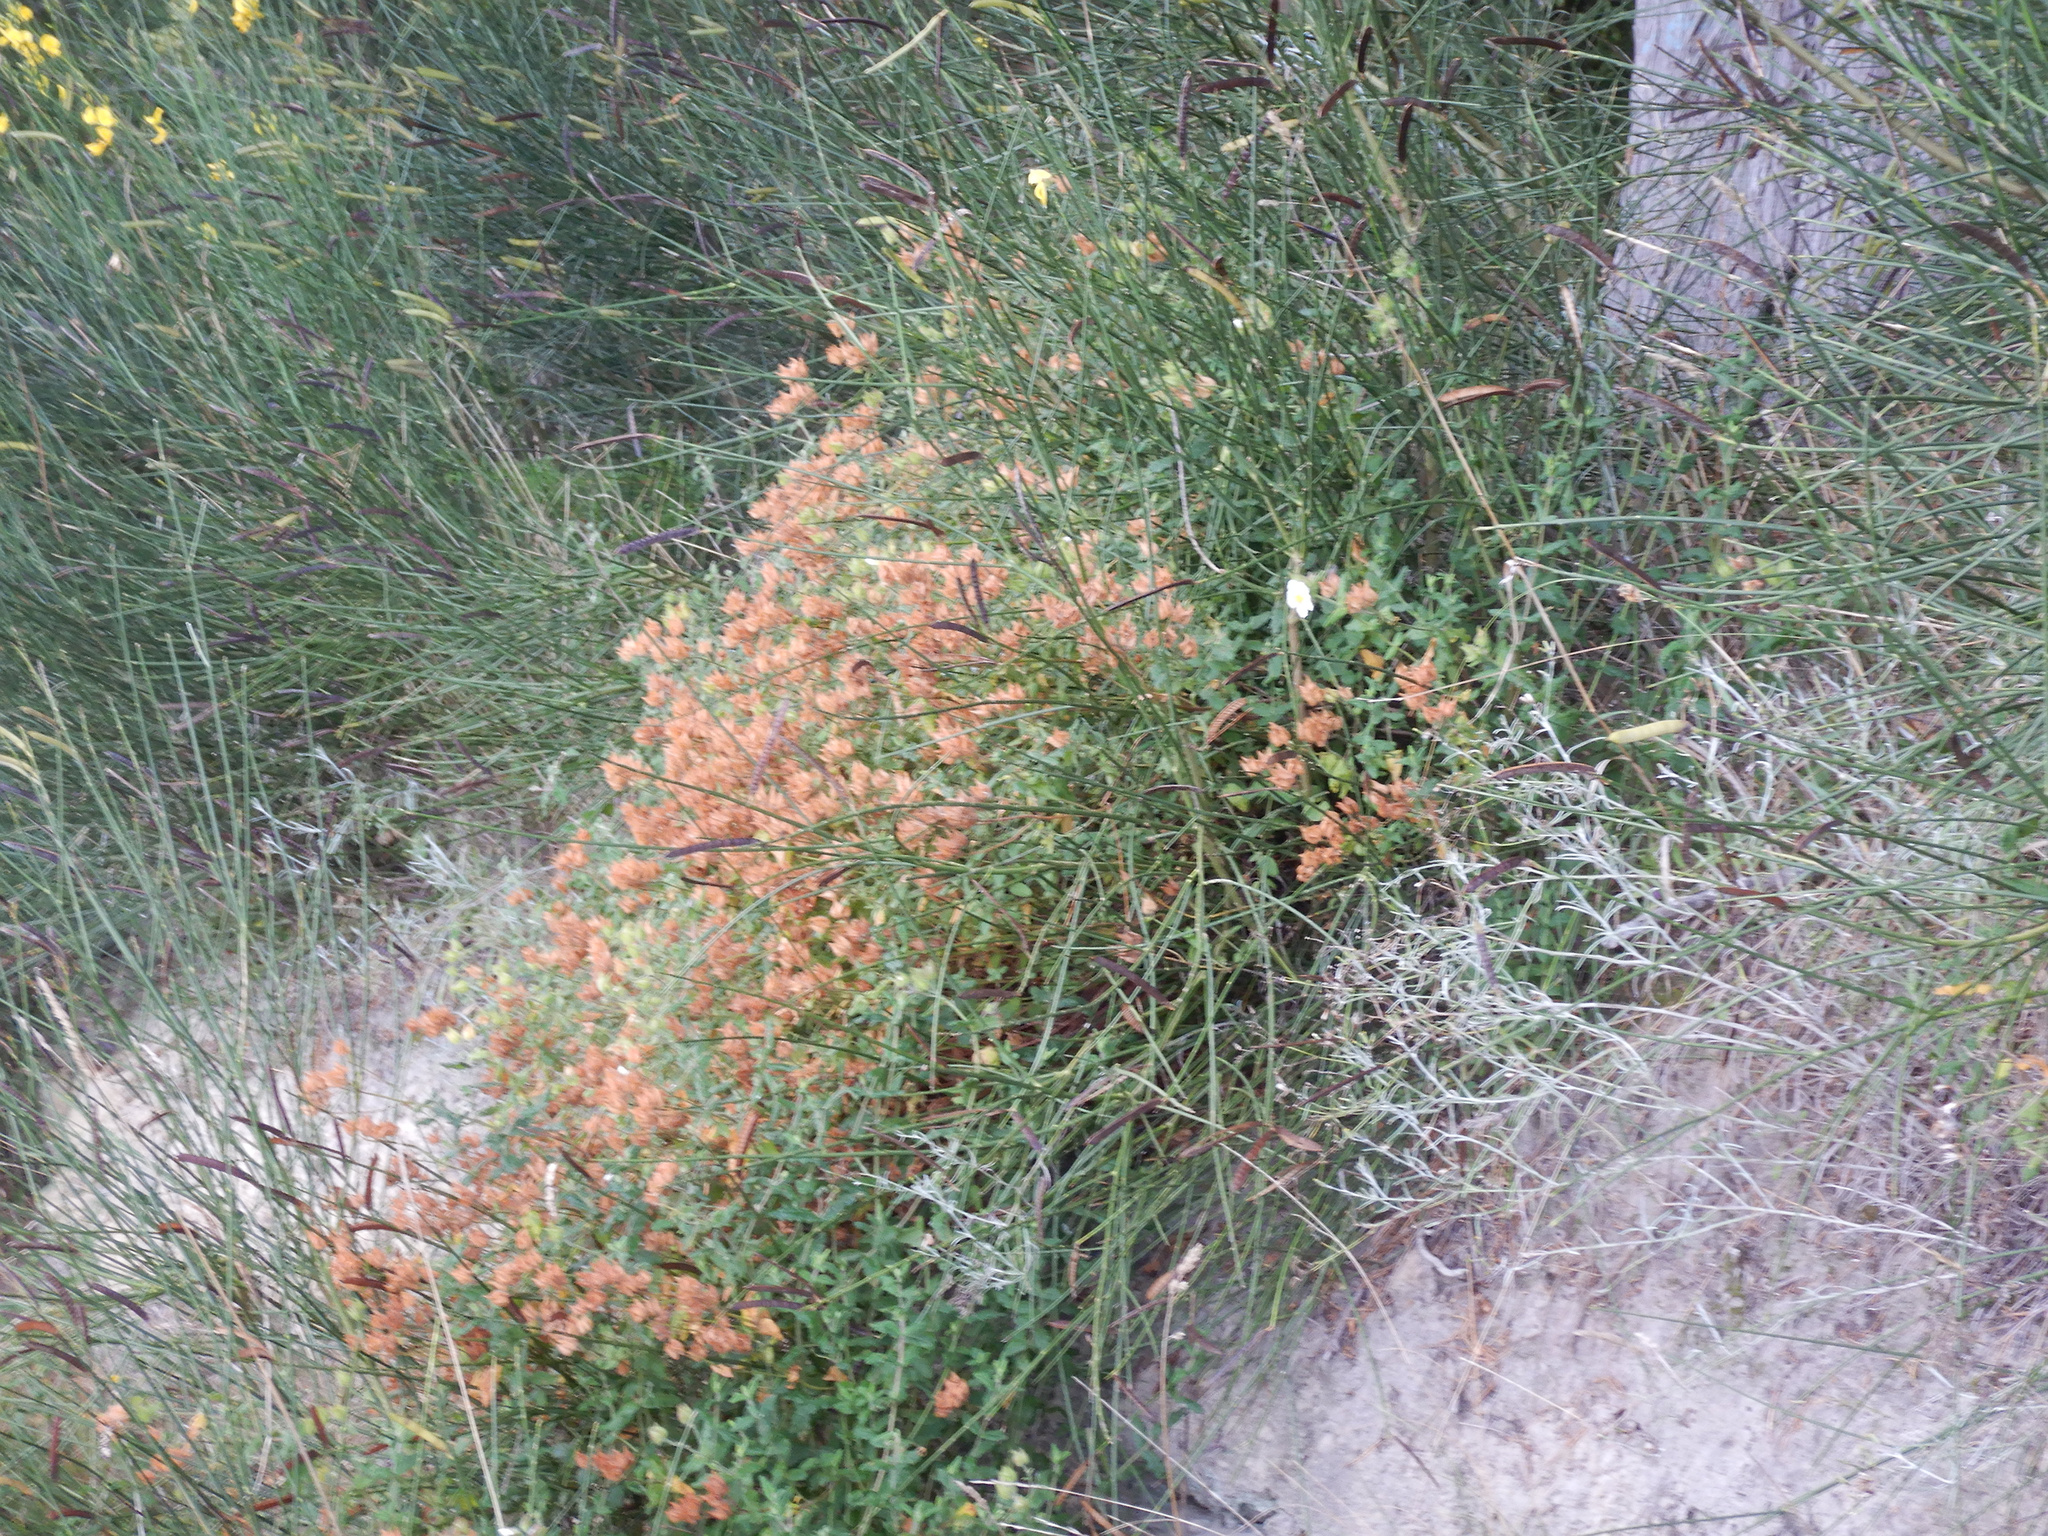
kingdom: Plantae
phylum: Tracheophyta
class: Magnoliopsida
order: Fabales
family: Fabaceae
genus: Spartium
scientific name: Spartium junceum
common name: Spanish broom
